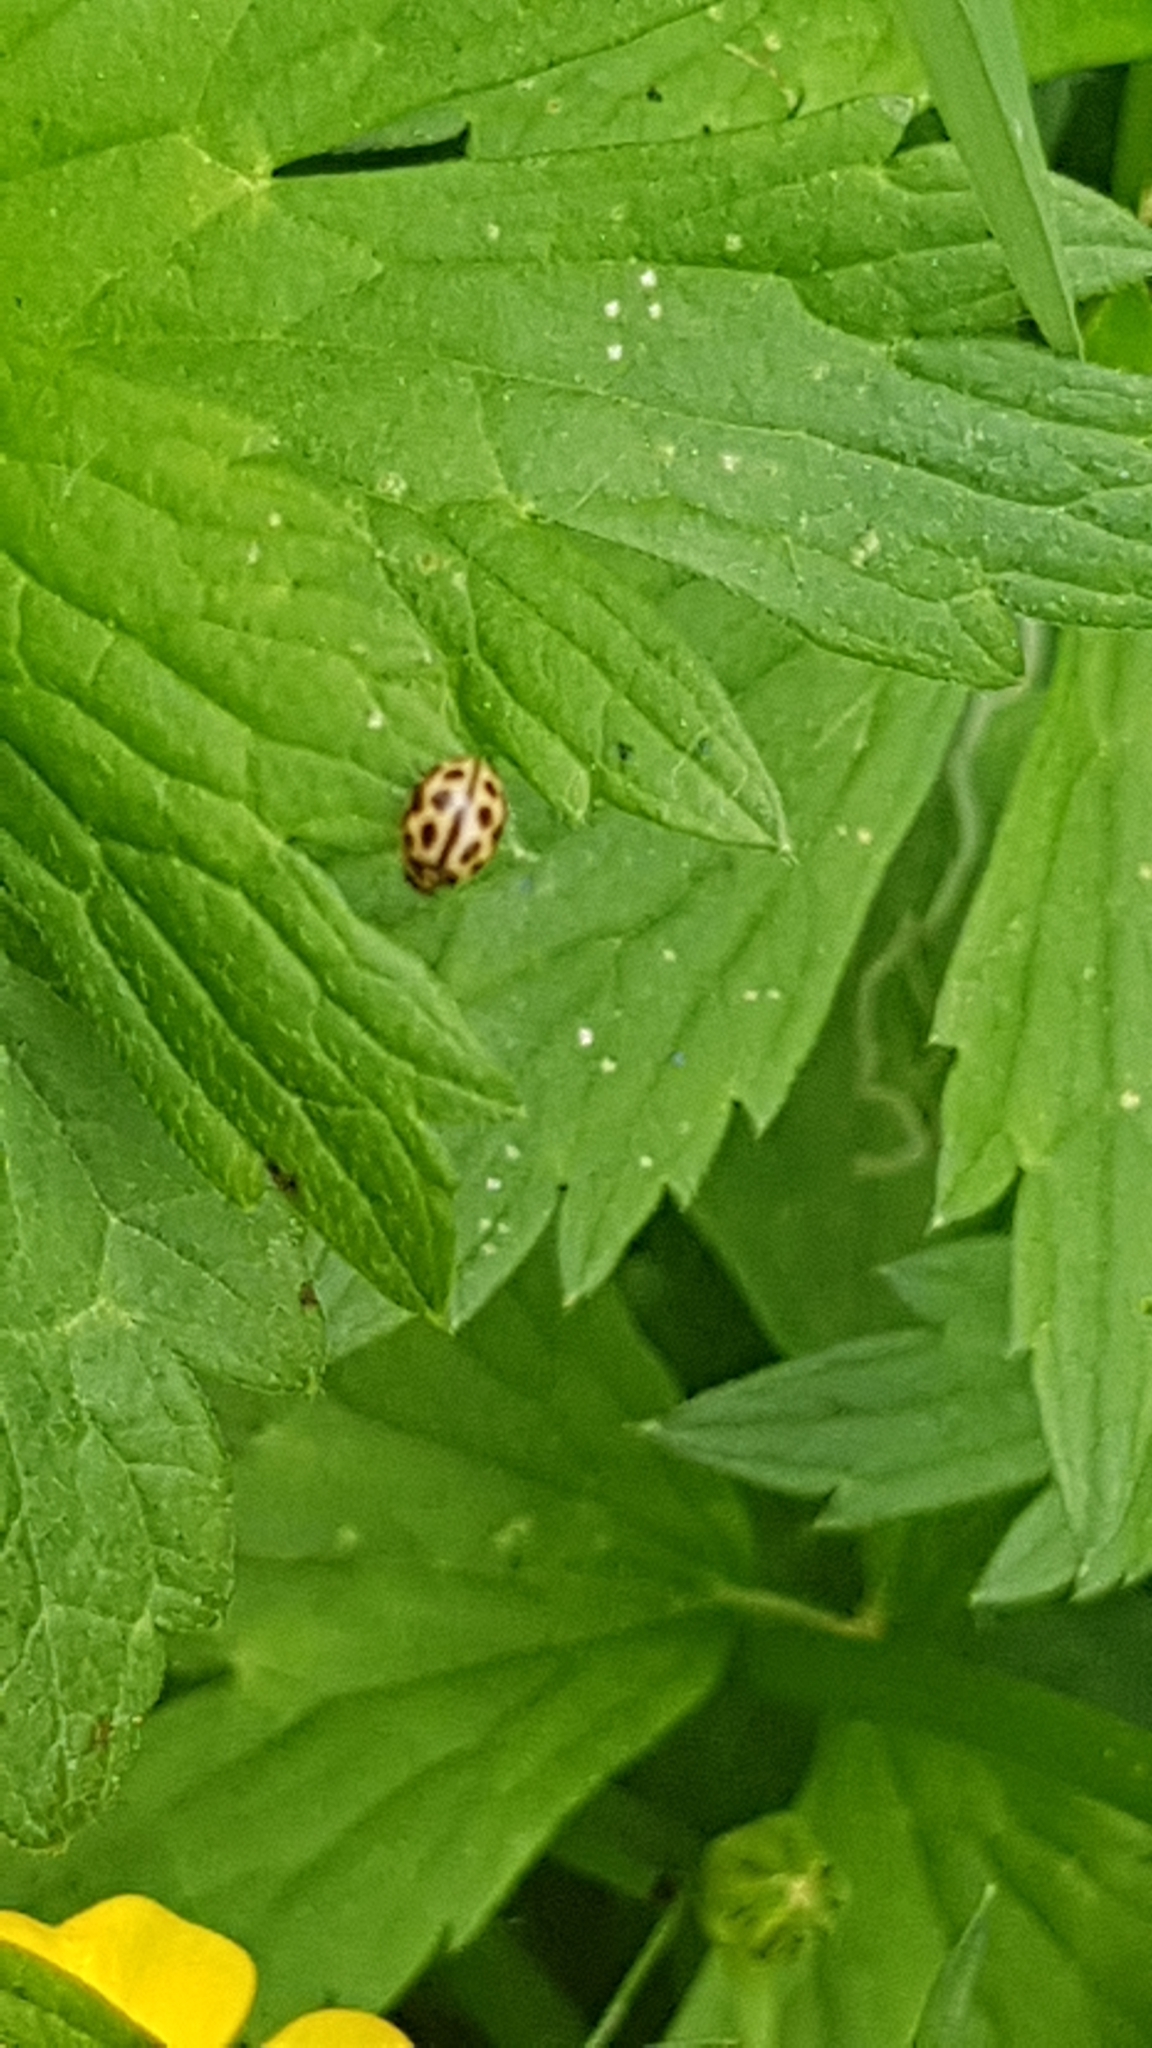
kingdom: Animalia
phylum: Arthropoda
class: Insecta
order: Coleoptera
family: Coccinellidae
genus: Tytthaspis
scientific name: Tytthaspis sedecimpunctata
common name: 16-spot ladybird
